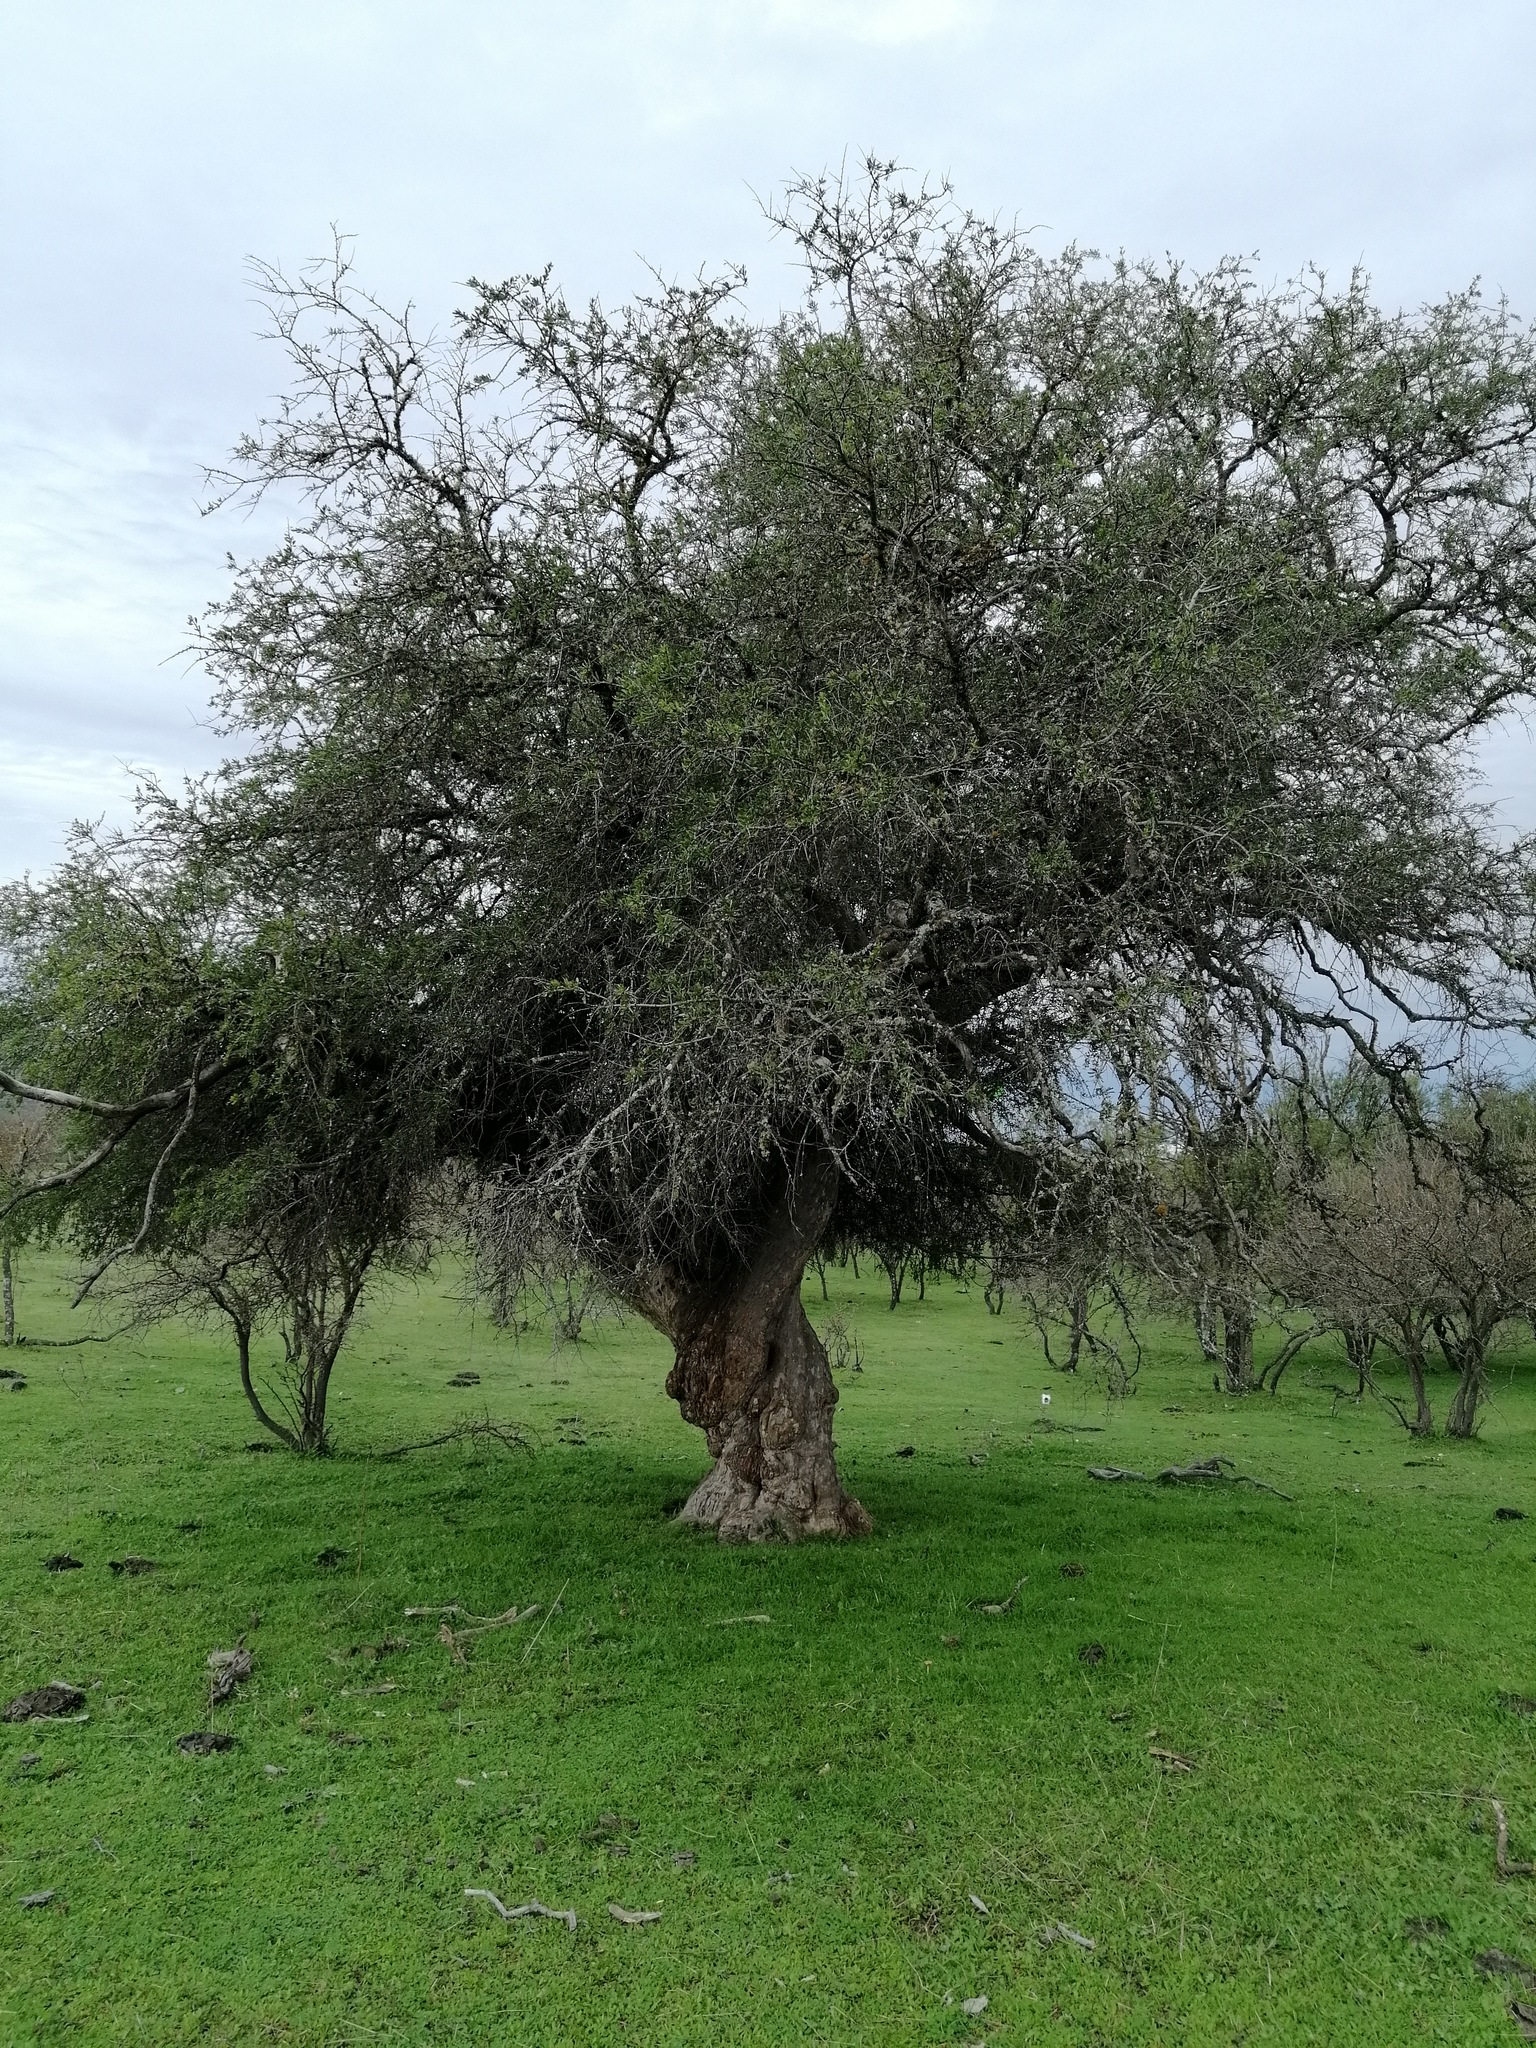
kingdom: Plantae
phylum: Tracheophyta
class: Magnoliopsida
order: Sapindales
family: Anacardiaceae
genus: Schinus
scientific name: Schinus polygama
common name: Hardee peppertree
